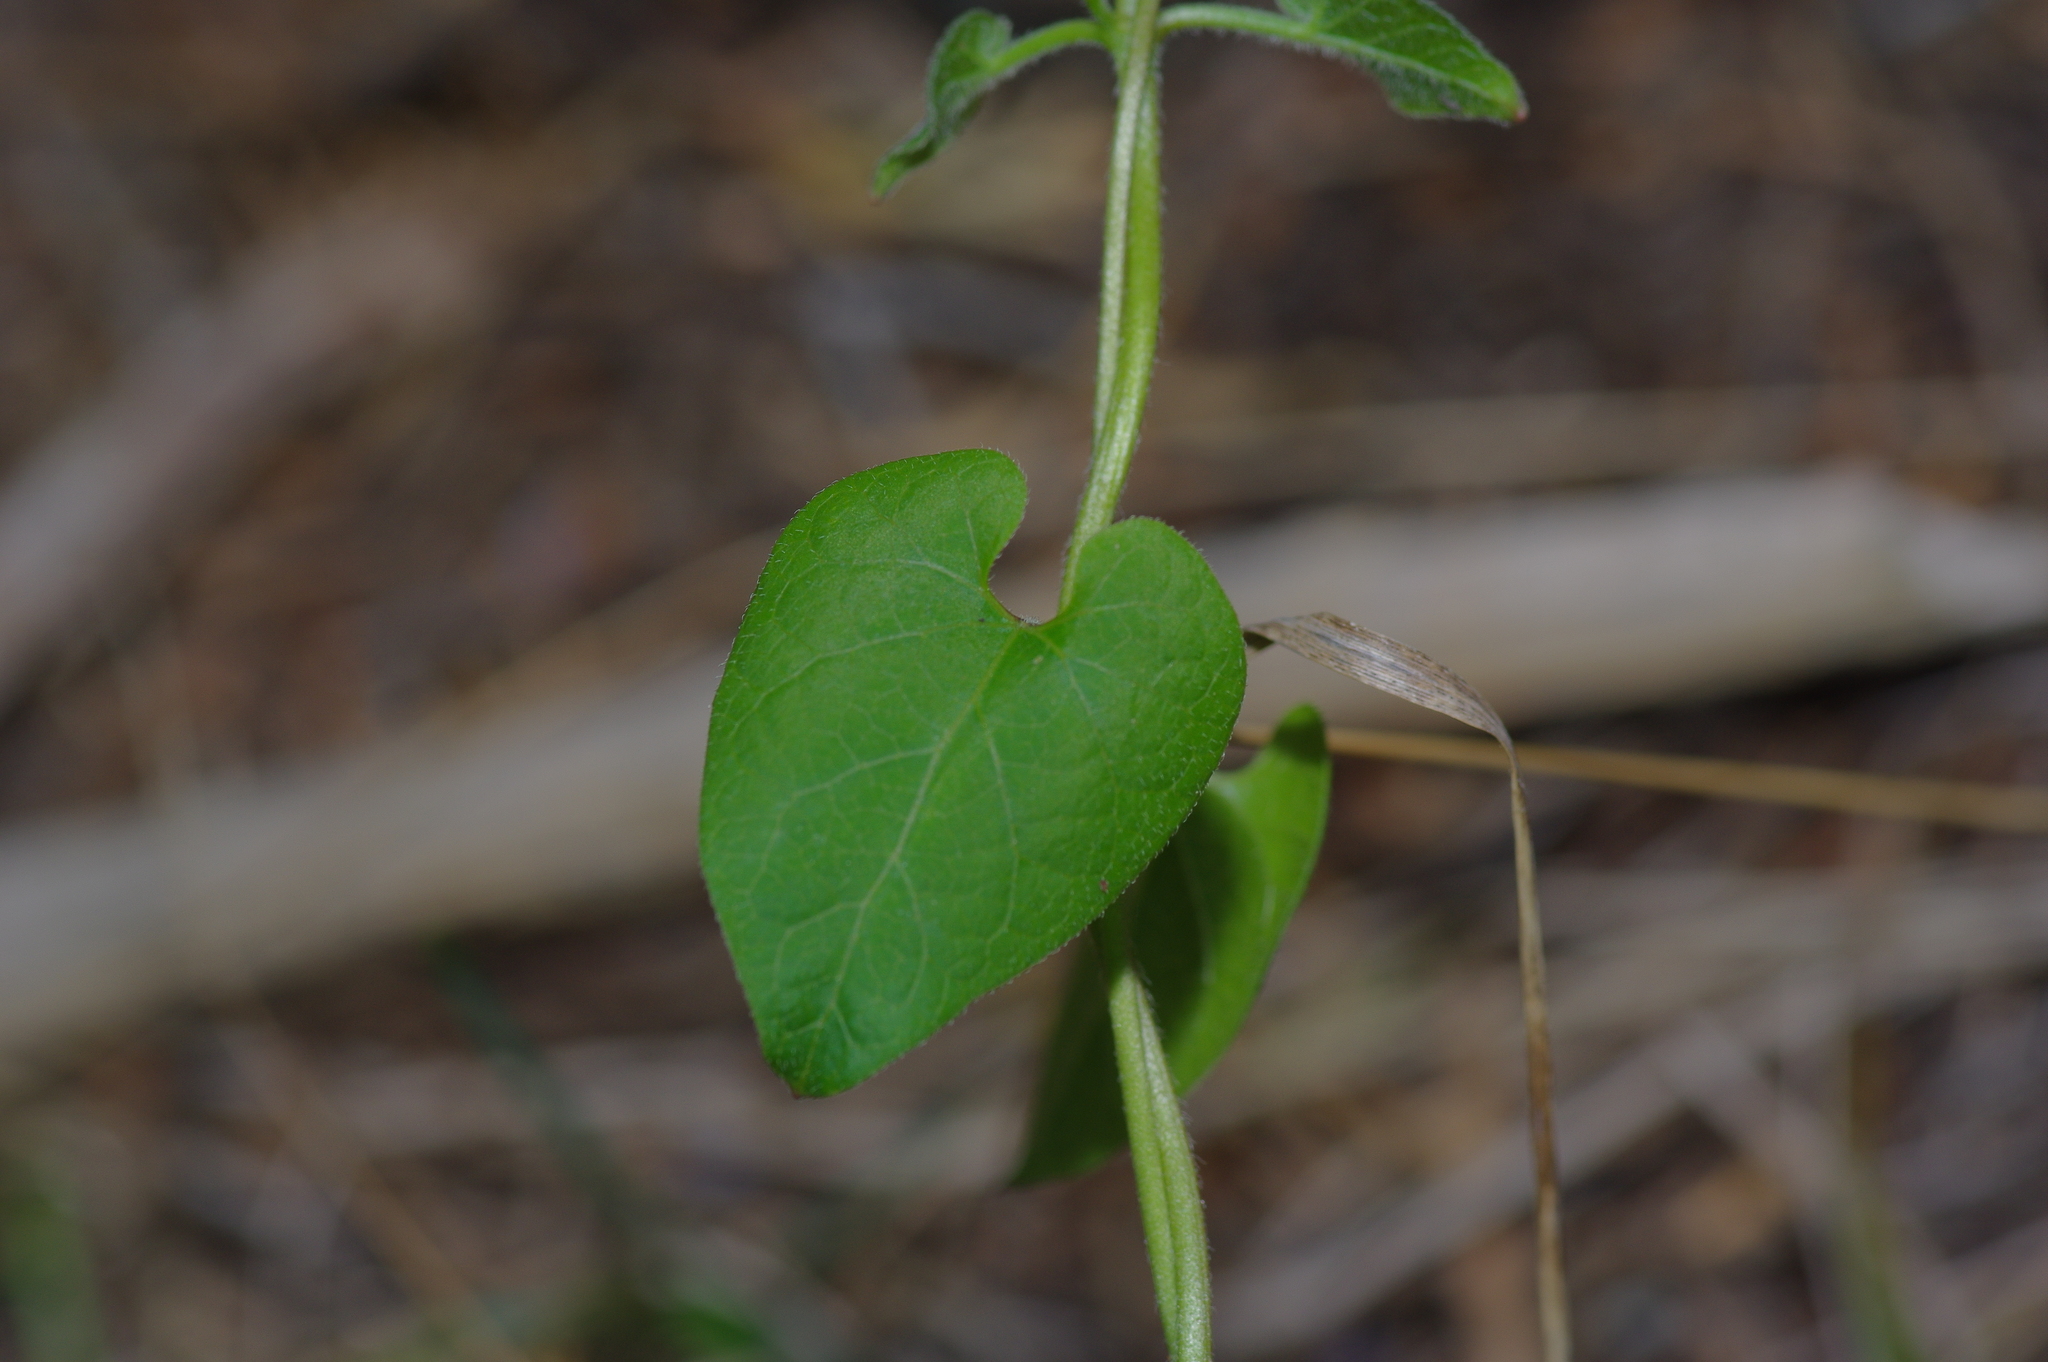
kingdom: Plantae
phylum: Tracheophyta
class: Magnoliopsida
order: Gentianales
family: Apocynaceae
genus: Dictyanthus
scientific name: Dictyanthus reticulatus
